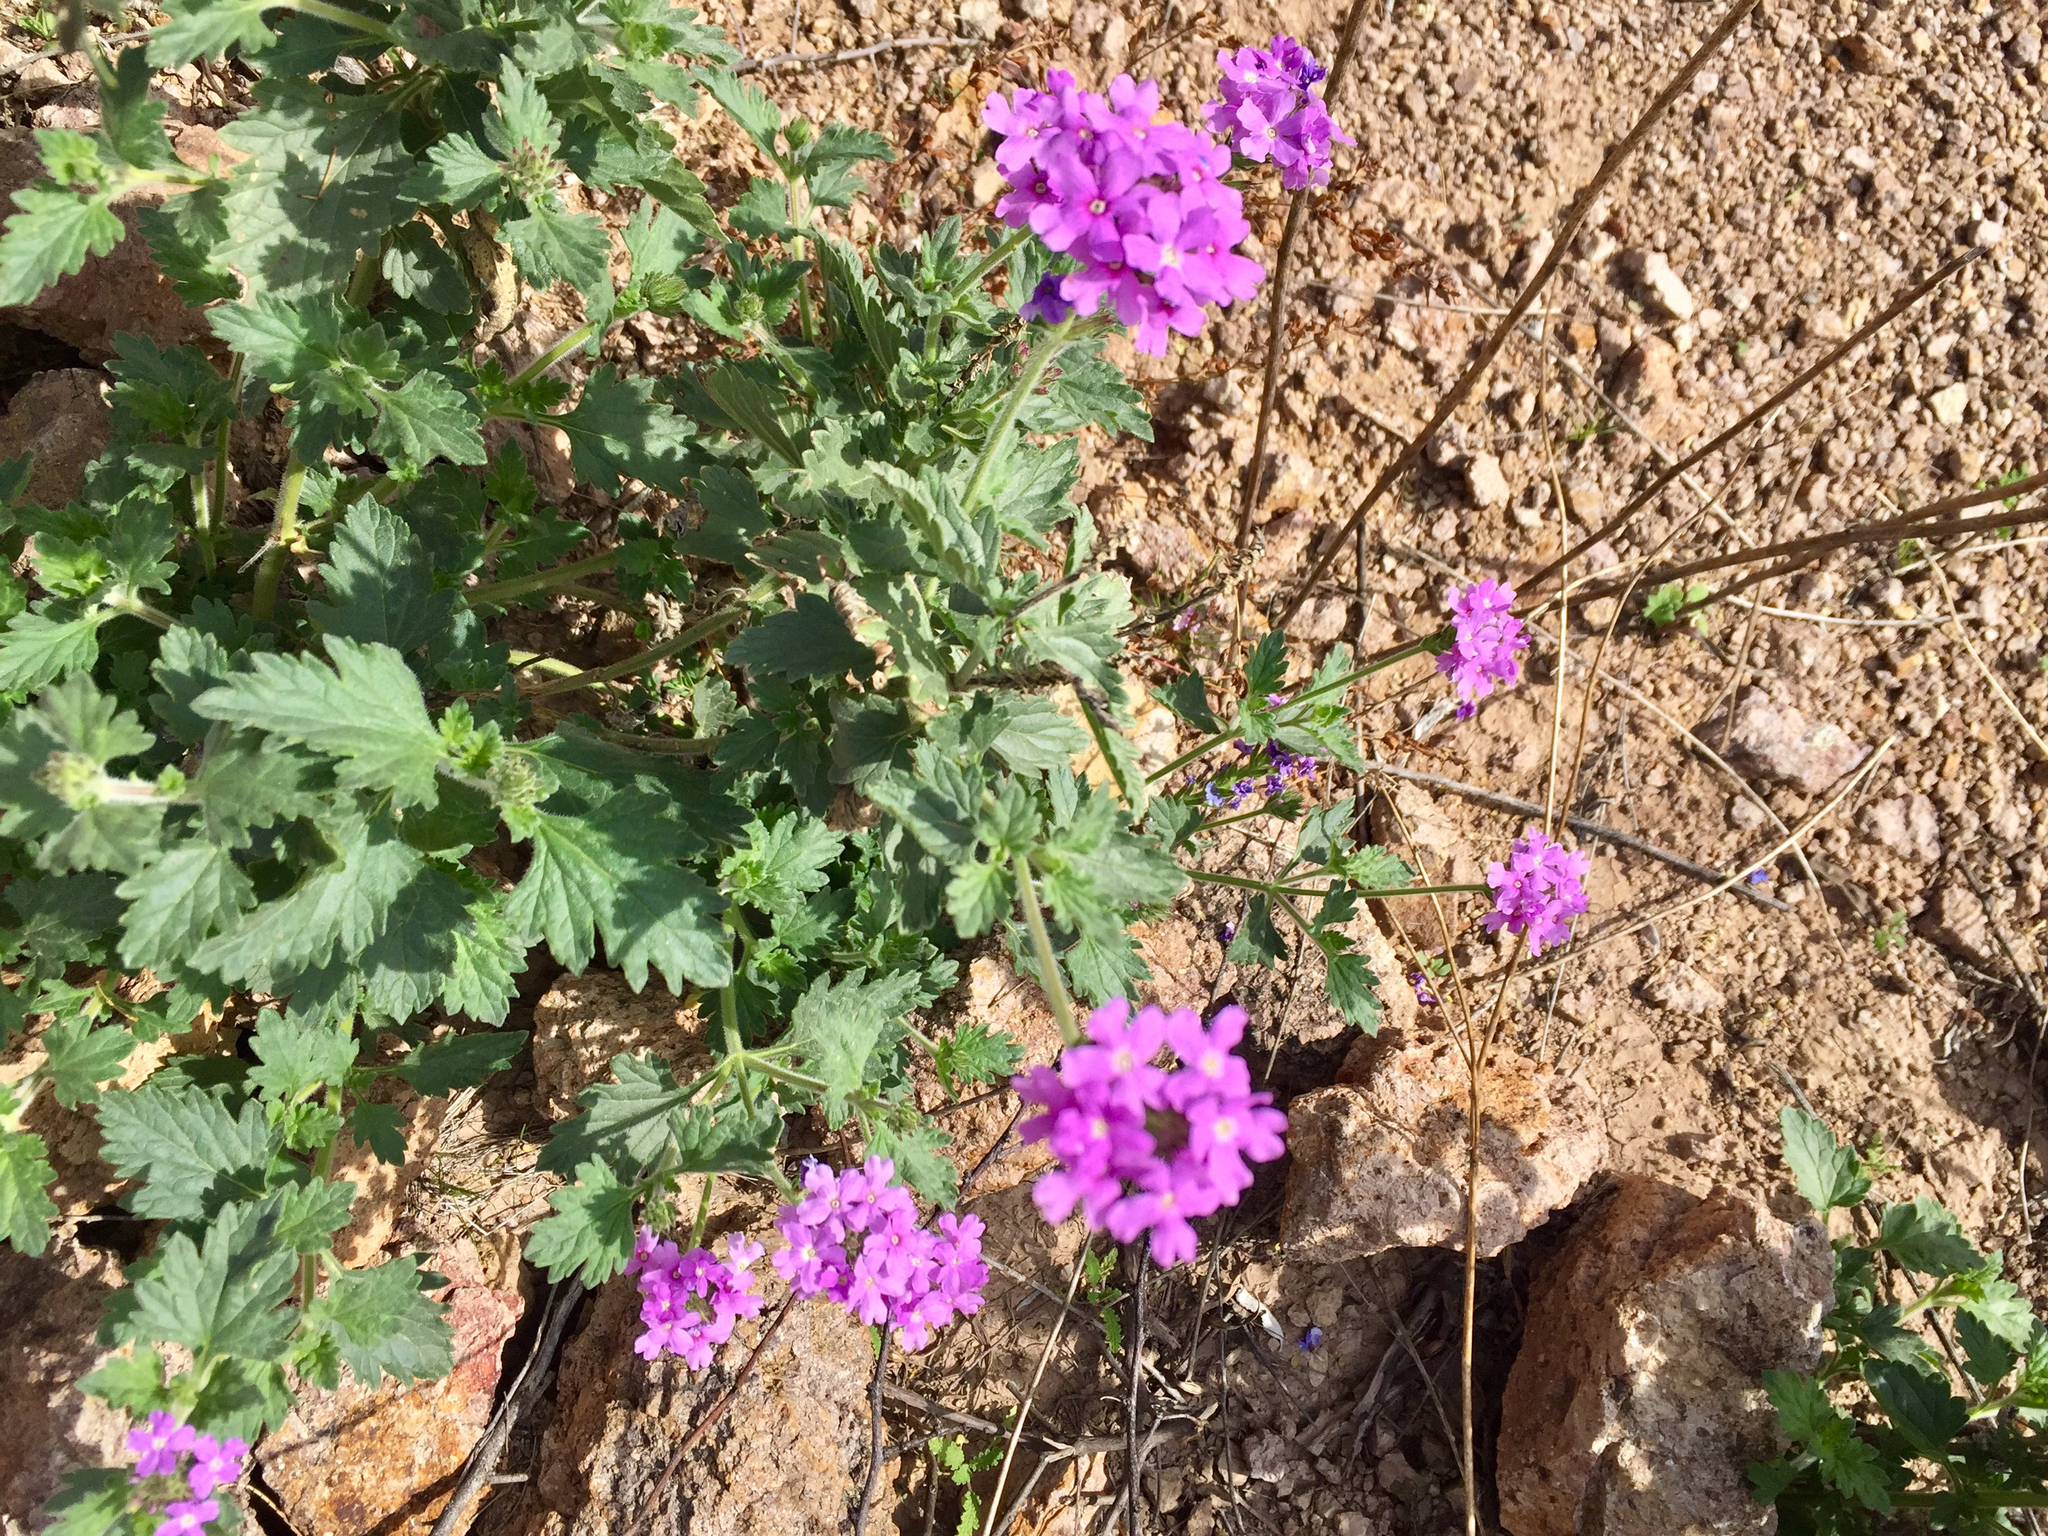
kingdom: Plantae
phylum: Tracheophyta
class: Magnoliopsida
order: Lamiales
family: Verbenaceae
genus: Verbena
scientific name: Verbena gooddingii
